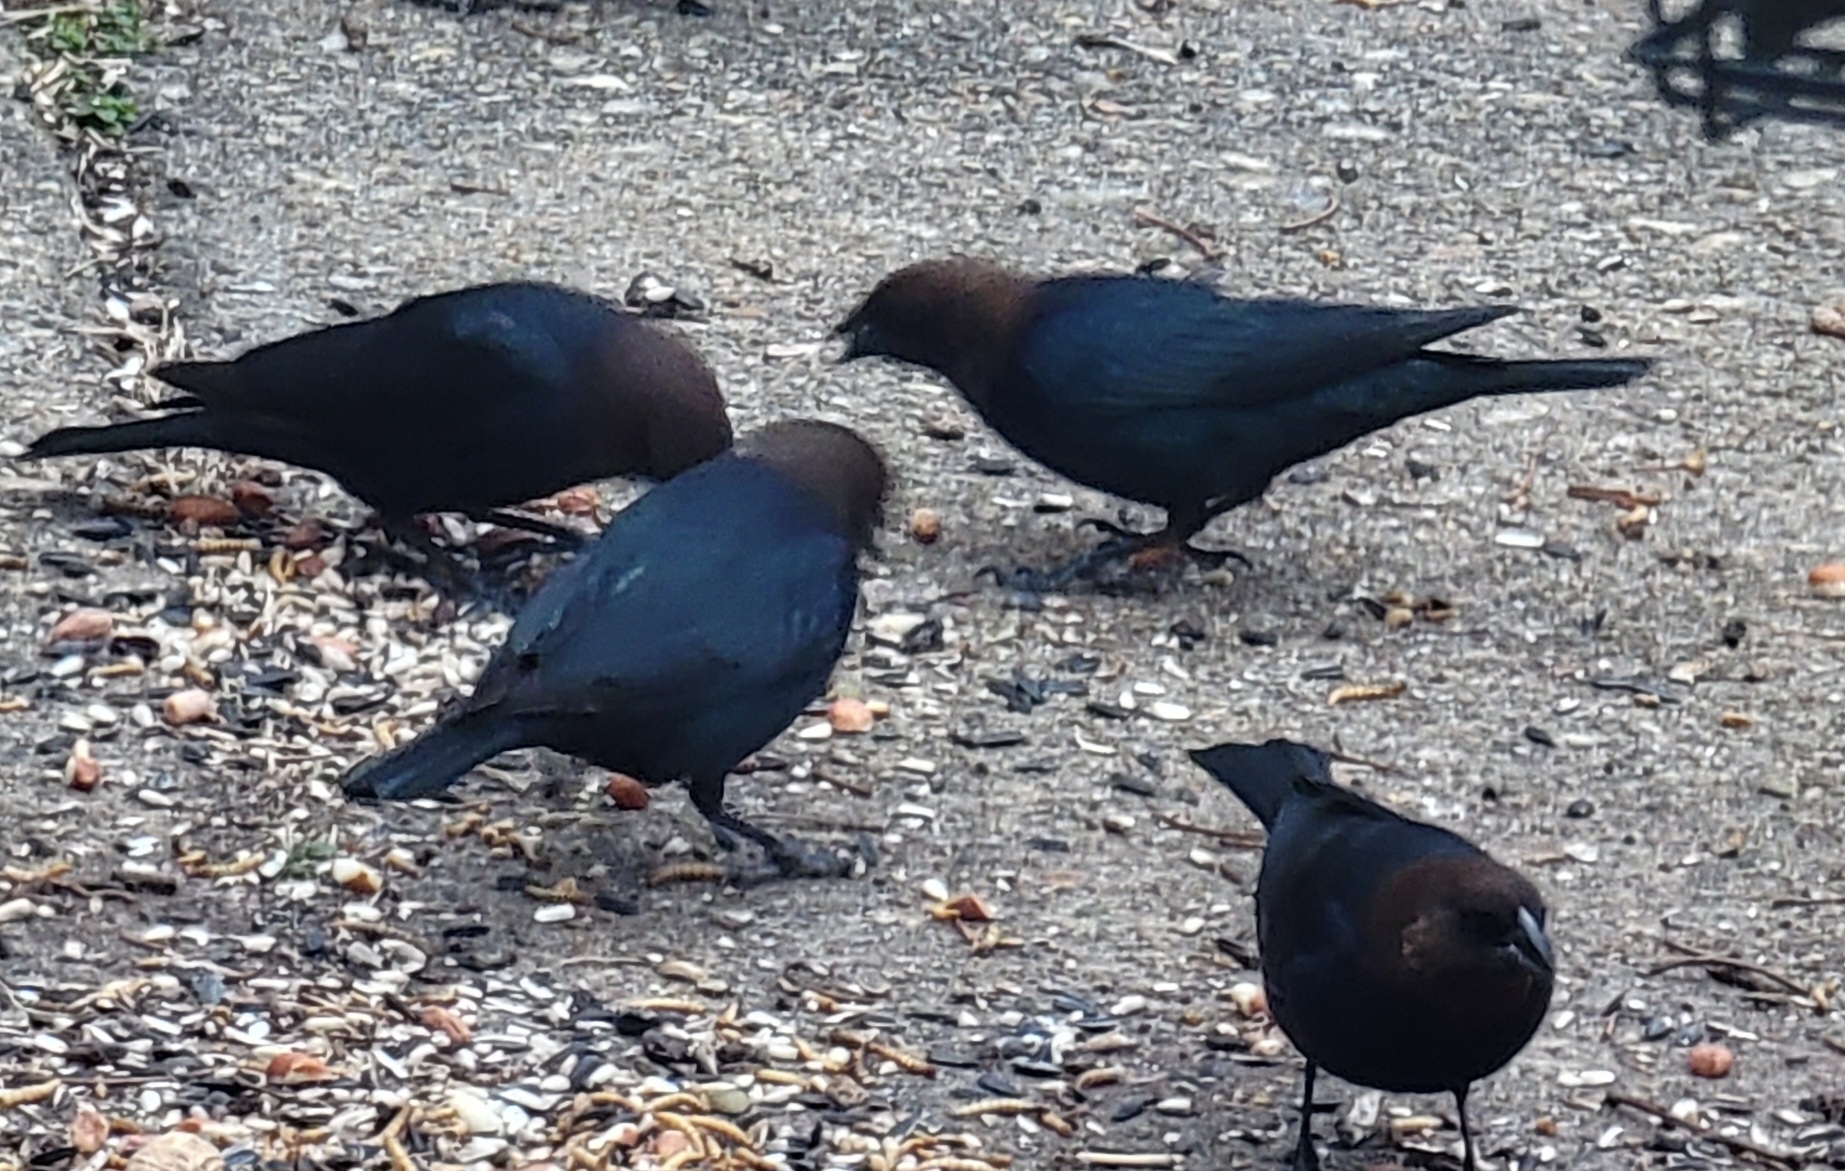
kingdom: Animalia
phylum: Chordata
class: Aves
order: Passeriformes
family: Icteridae
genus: Molothrus
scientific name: Molothrus ater
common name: Brown-headed cowbird
